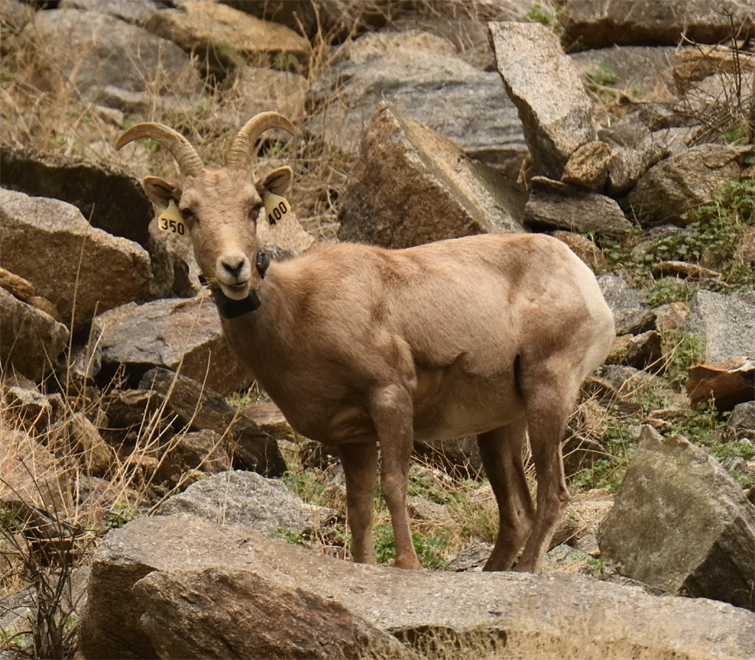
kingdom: Animalia
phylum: Chordata
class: Mammalia
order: Artiodactyla
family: Bovidae
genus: Ovis
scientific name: Ovis canadensis
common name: Bighorn sheep
